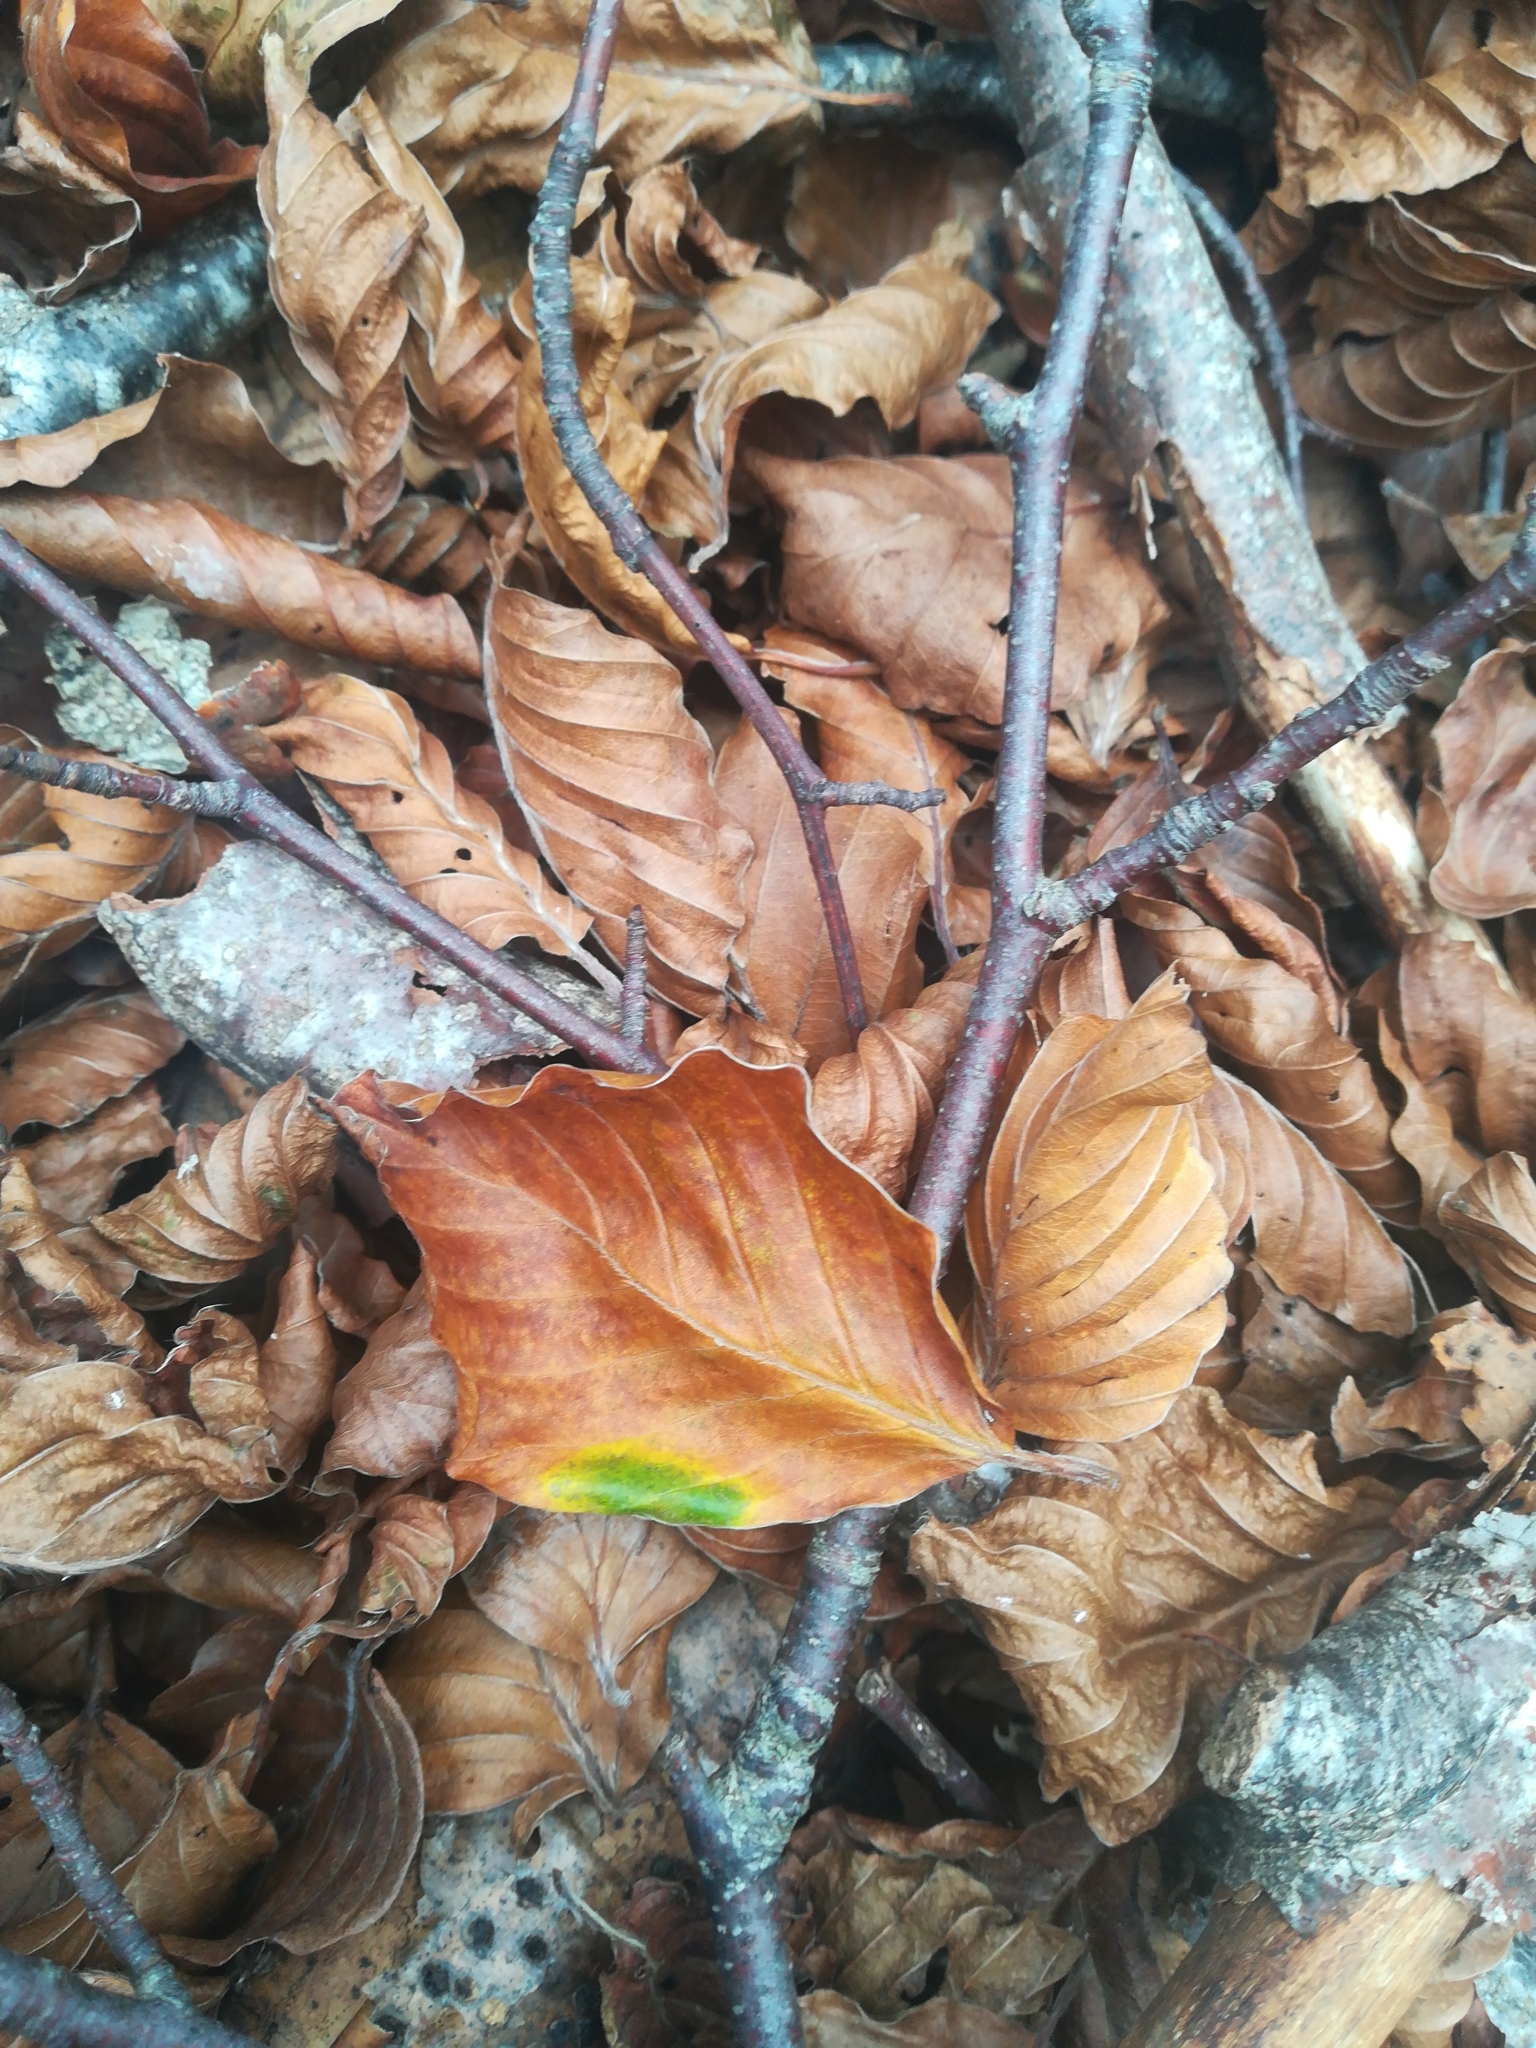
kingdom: Plantae
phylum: Tracheophyta
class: Magnoliopsida
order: Fagales
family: Fagaceae
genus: Fagus
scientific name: Fagus sylvatica
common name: Beech
